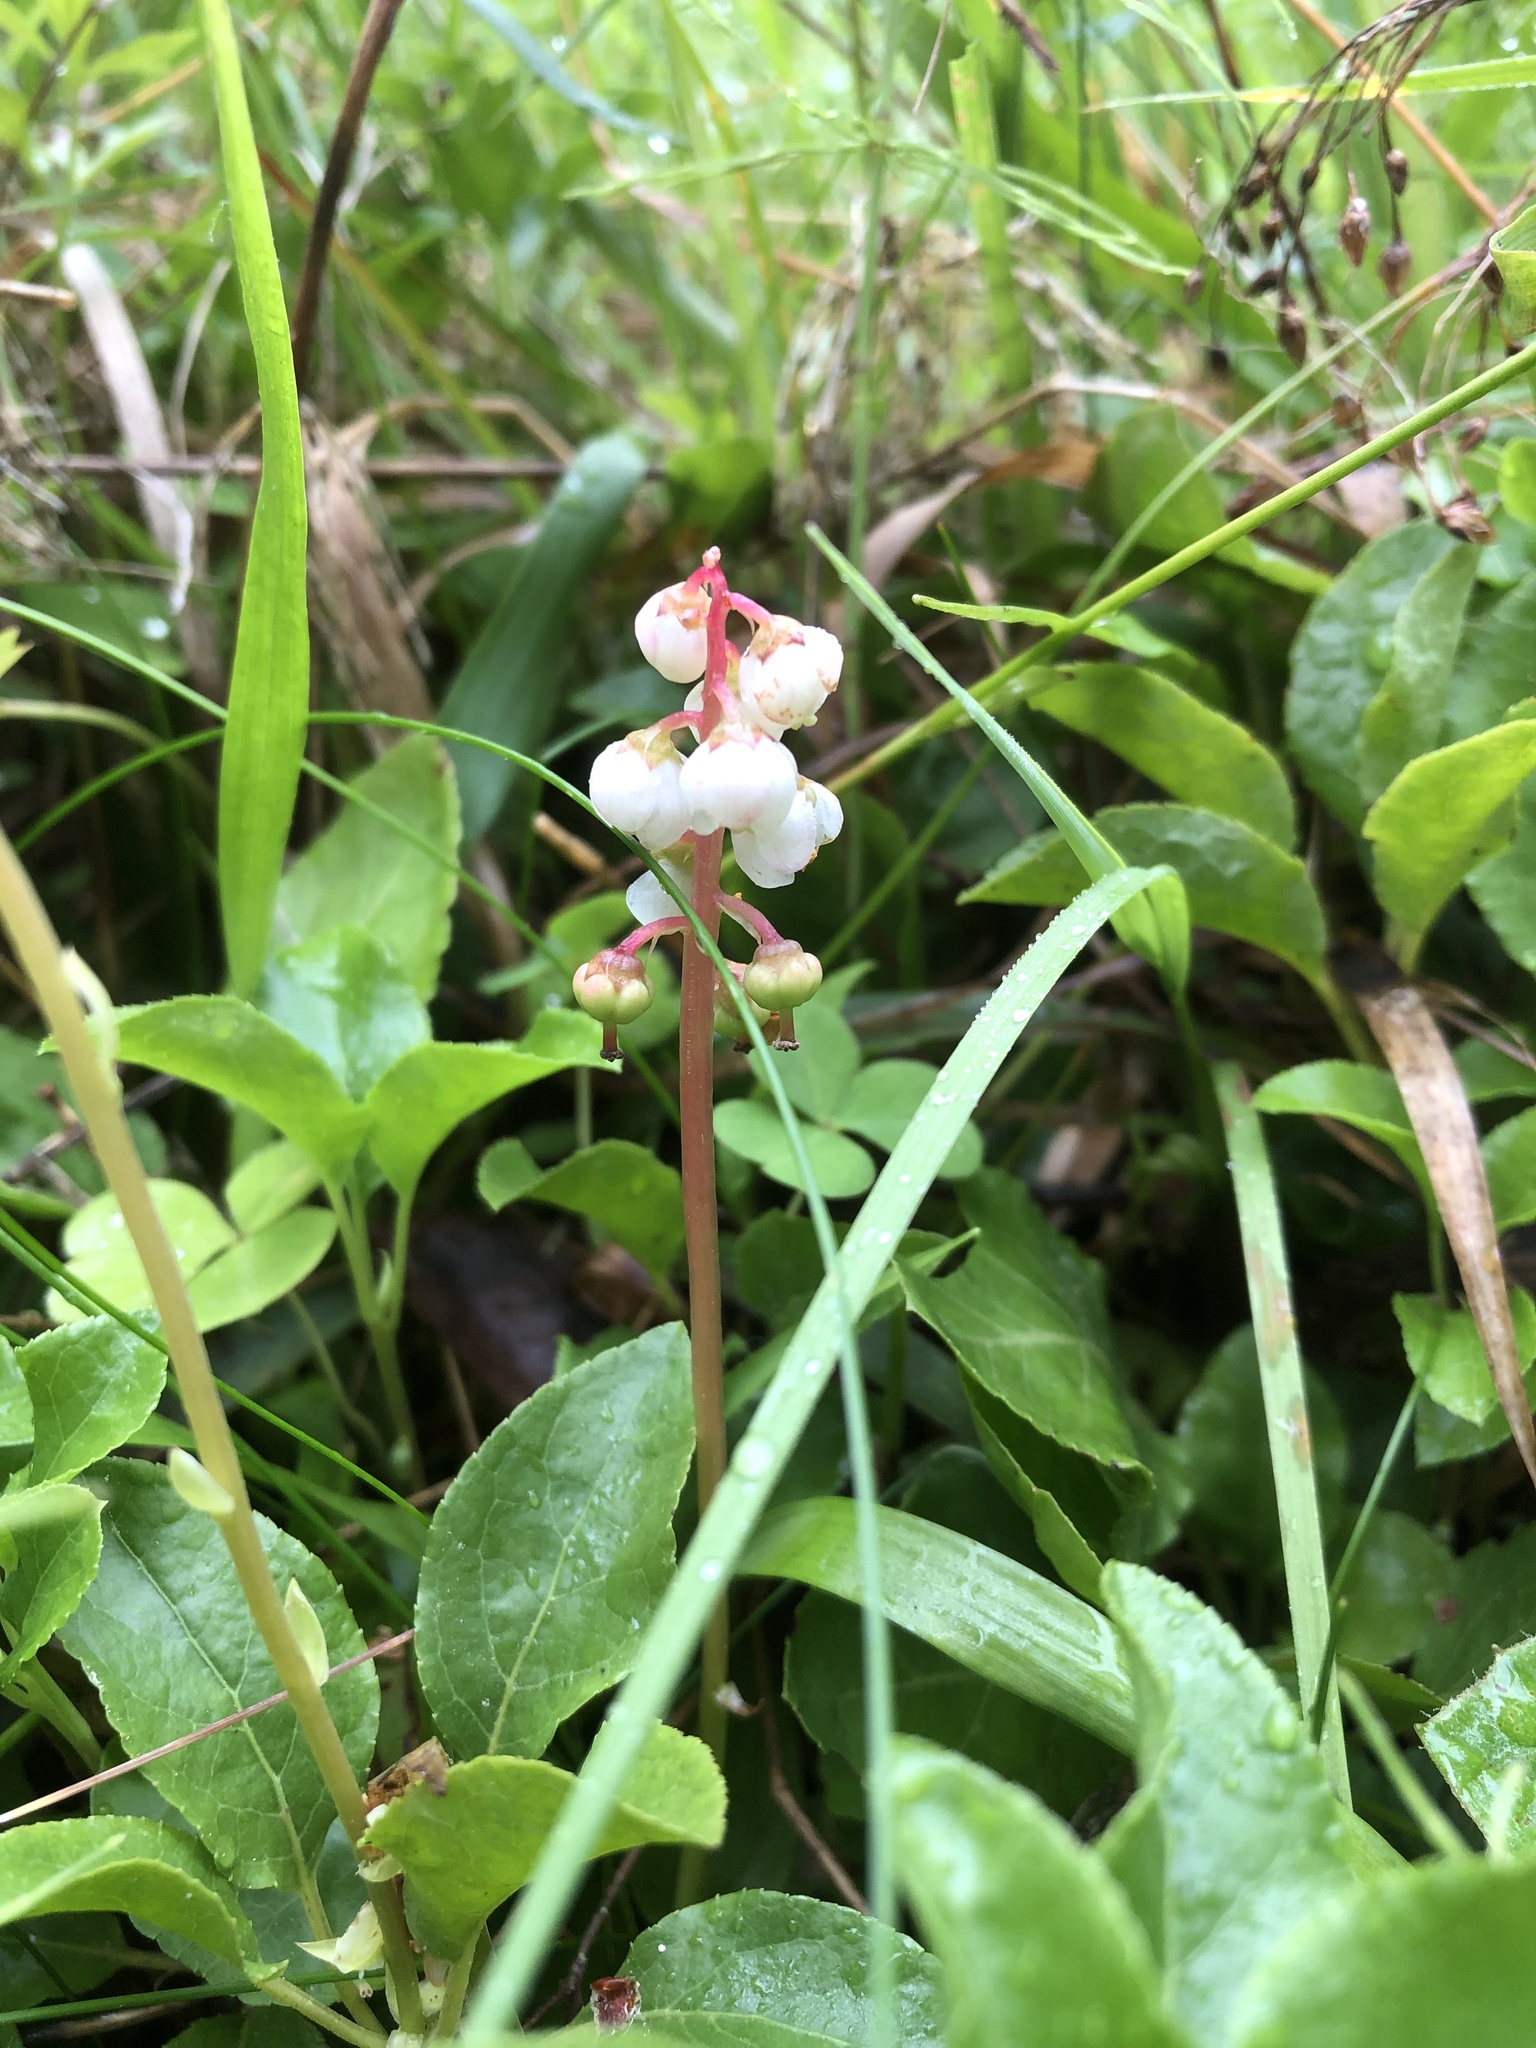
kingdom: Plantae
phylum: Tracheophyta
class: Magnoliopsida
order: Ericales
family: Ericaceae
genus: Pyrola
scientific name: Pyrola minor
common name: Common wintergreen
